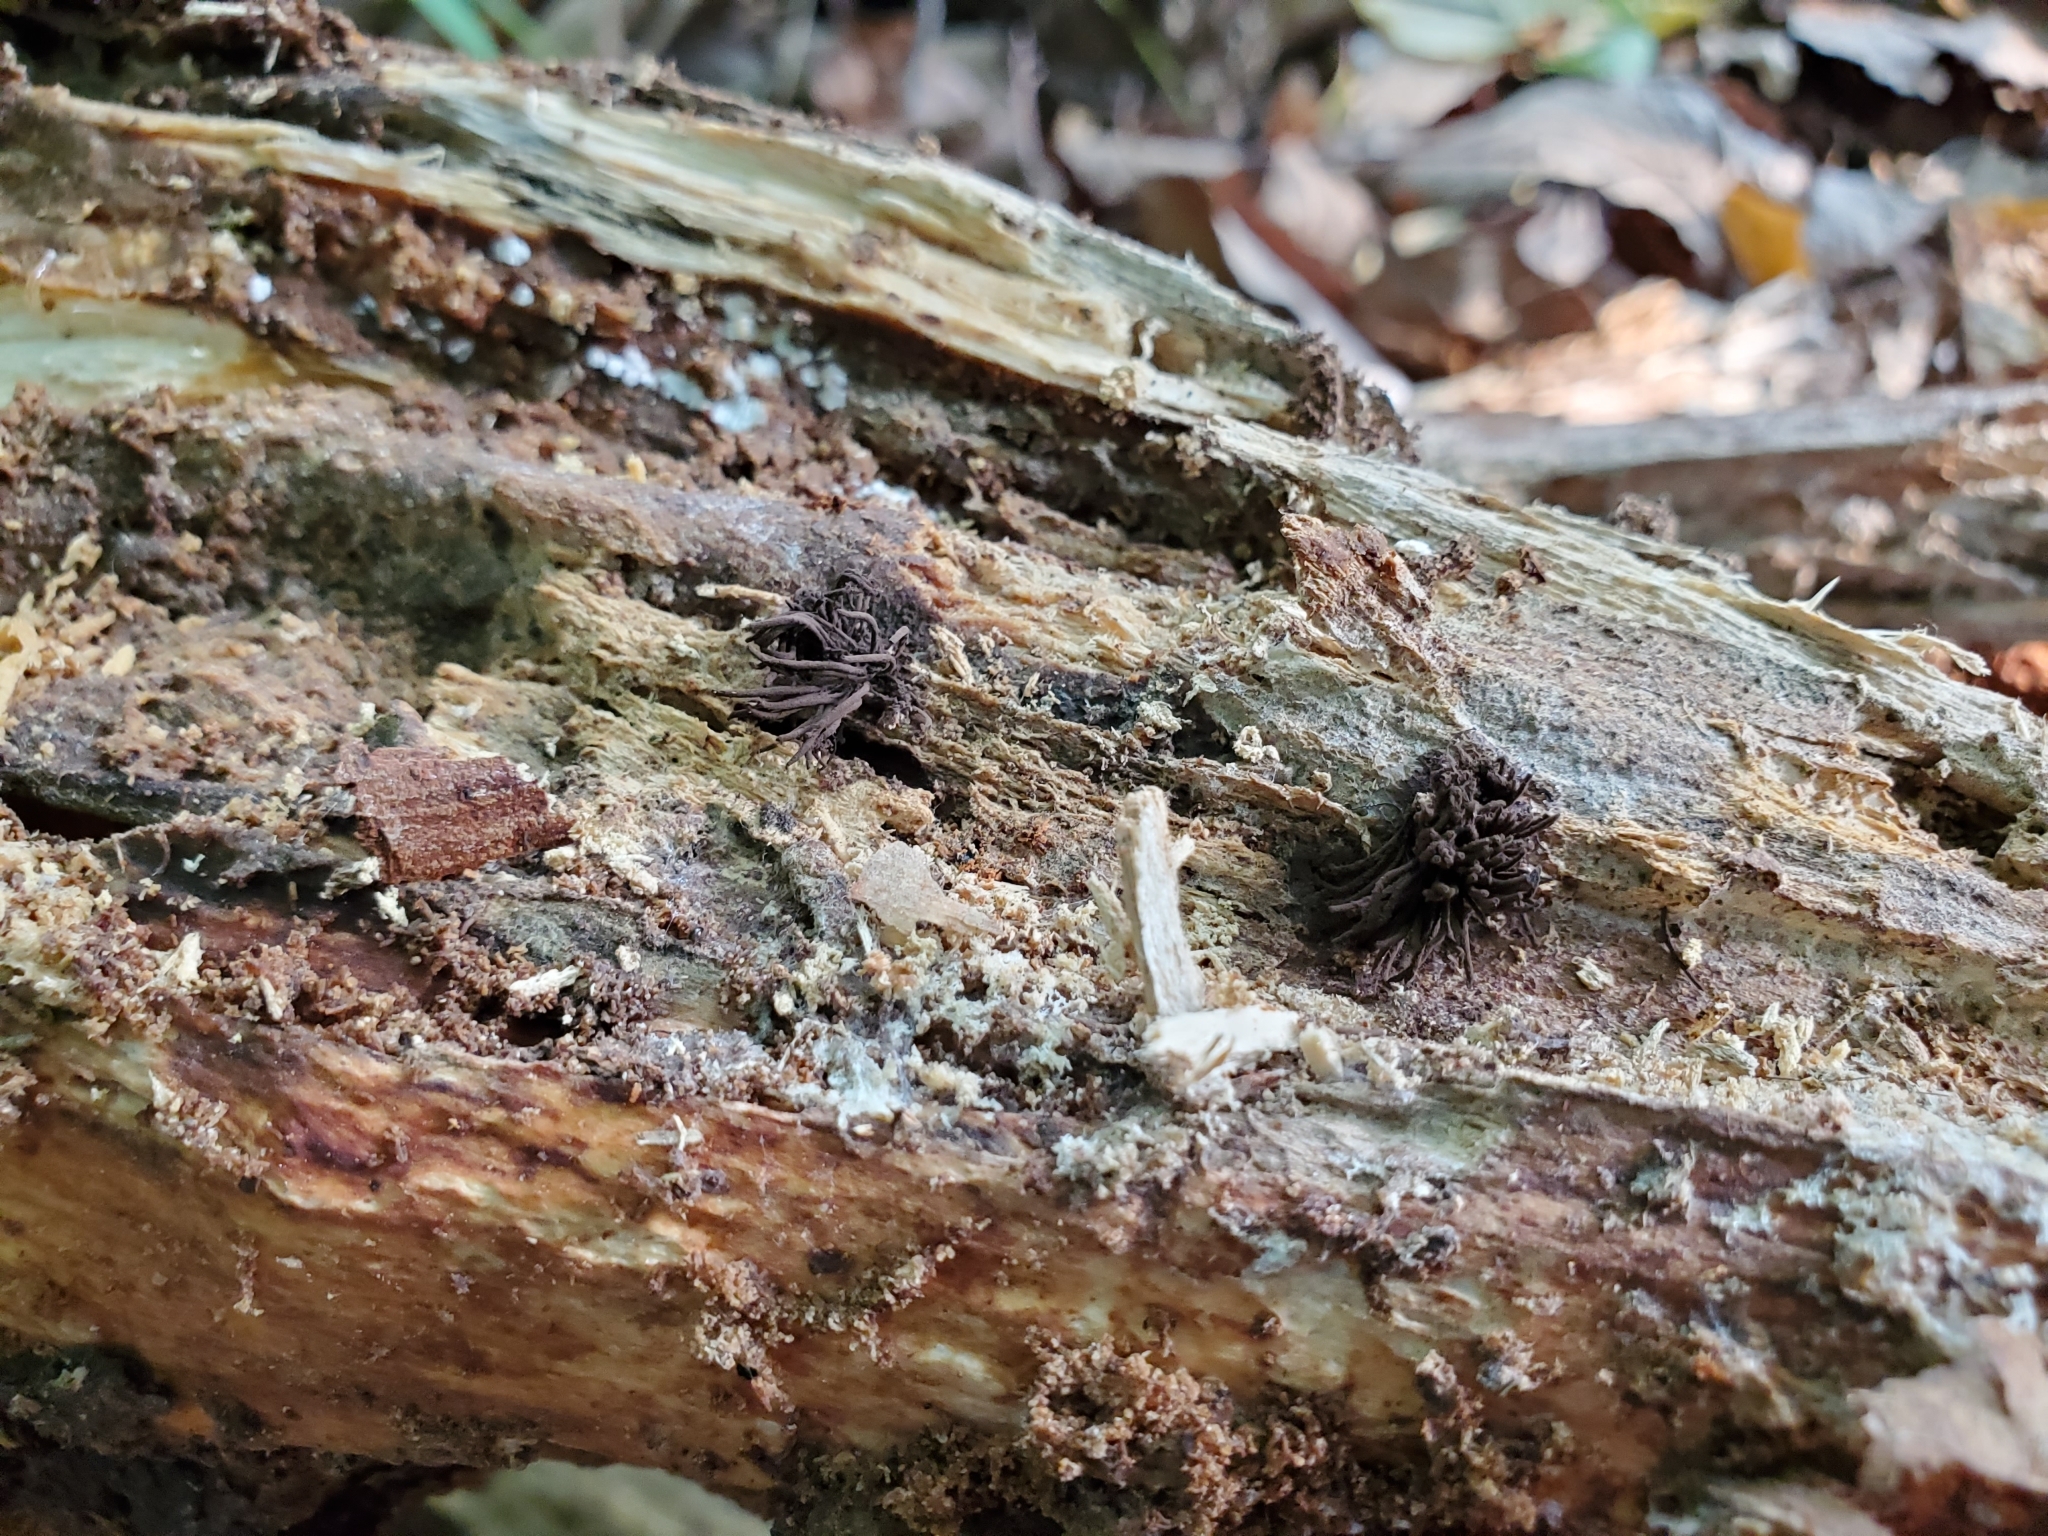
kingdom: Protozoa
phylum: Mycetozoa
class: Myxomycetes
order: Stemonitidales
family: Stemonitidaceae
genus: Stemonitis
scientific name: Stemonitis splendens
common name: Chocolate tube slime
